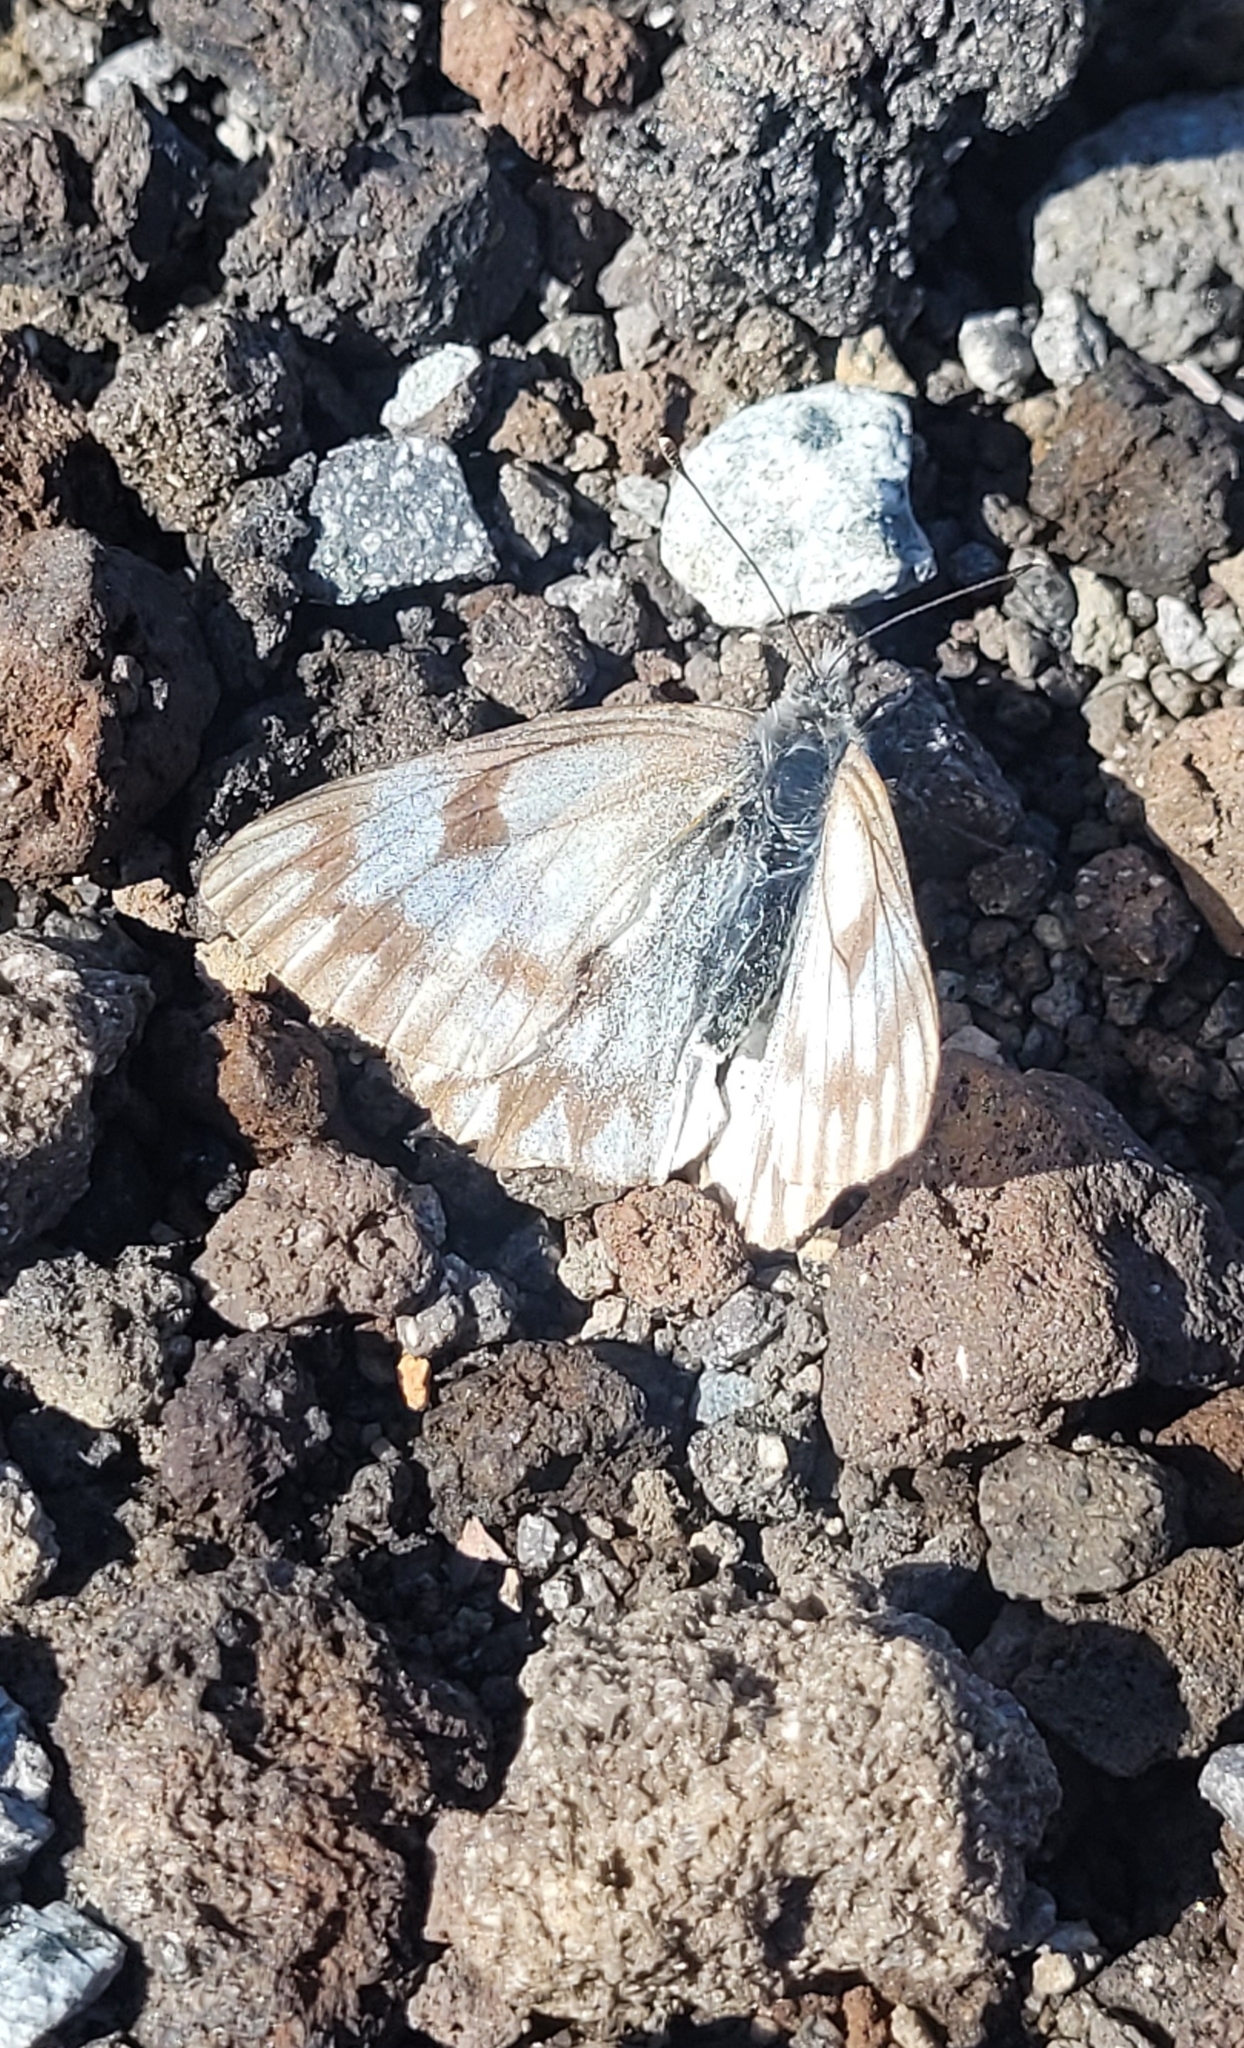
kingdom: Animalia
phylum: Arthropoda
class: Insecta
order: Lepidoptera
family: Pieridae
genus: Pontia
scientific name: Pontia callidice
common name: Peak white
